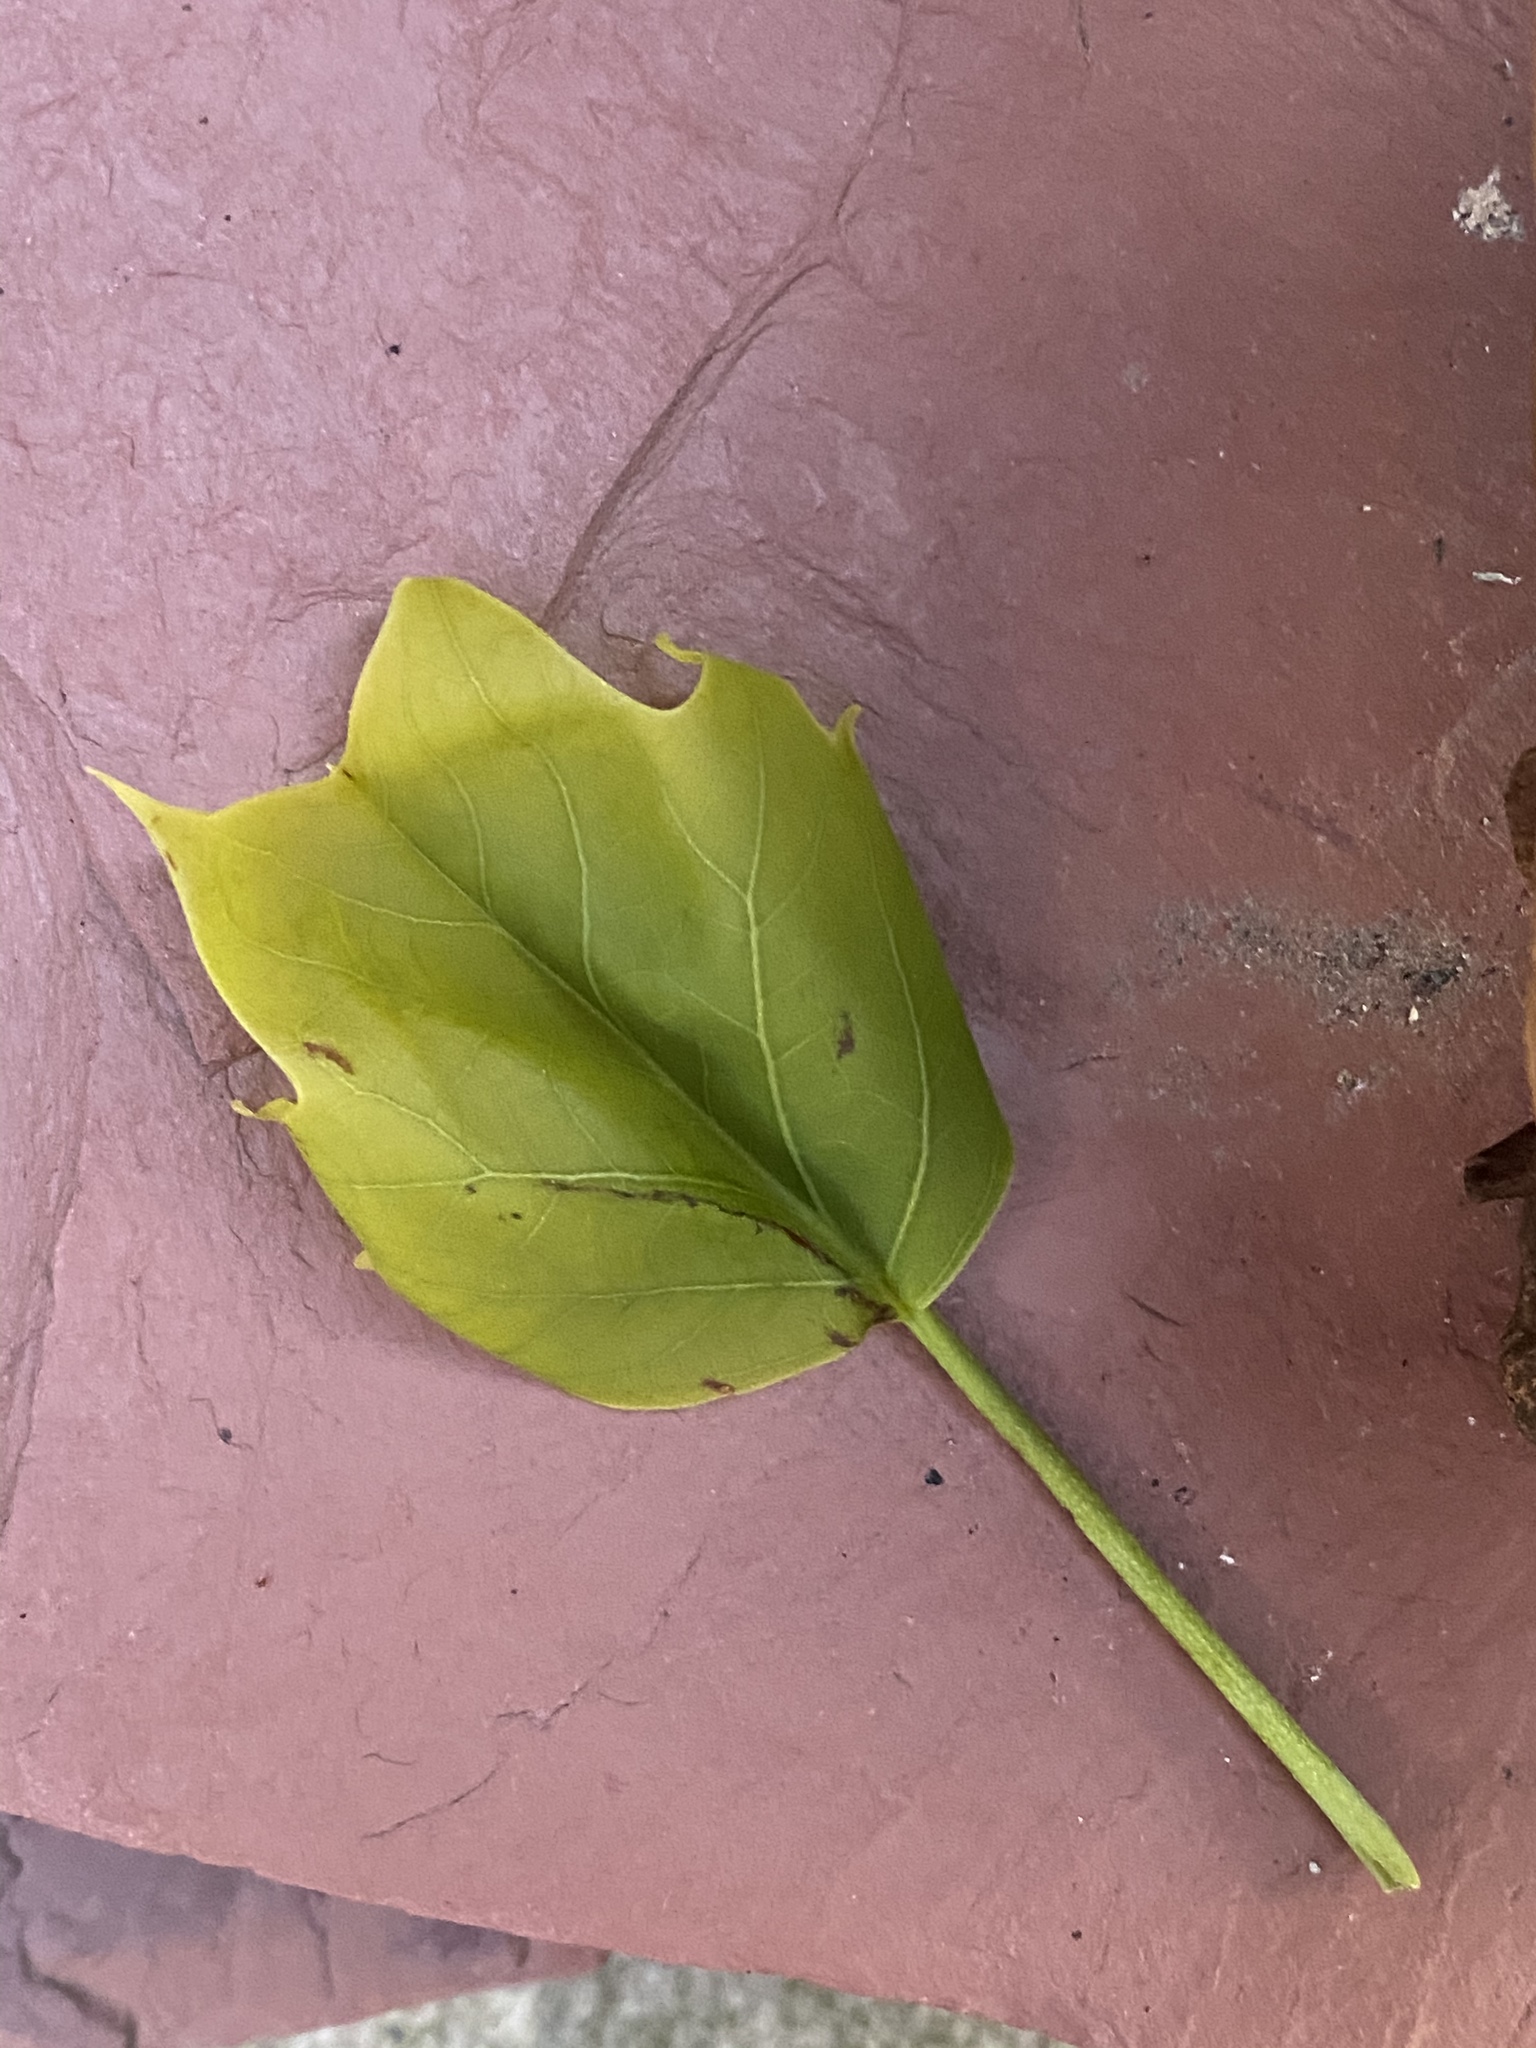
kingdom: Plantae
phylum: Tracheophyta
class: Magnoliopsida
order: Magnoliales
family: Magnoliaceae
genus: Liriodendron
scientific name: Liriodendron tulipifera
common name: Tulip tree
